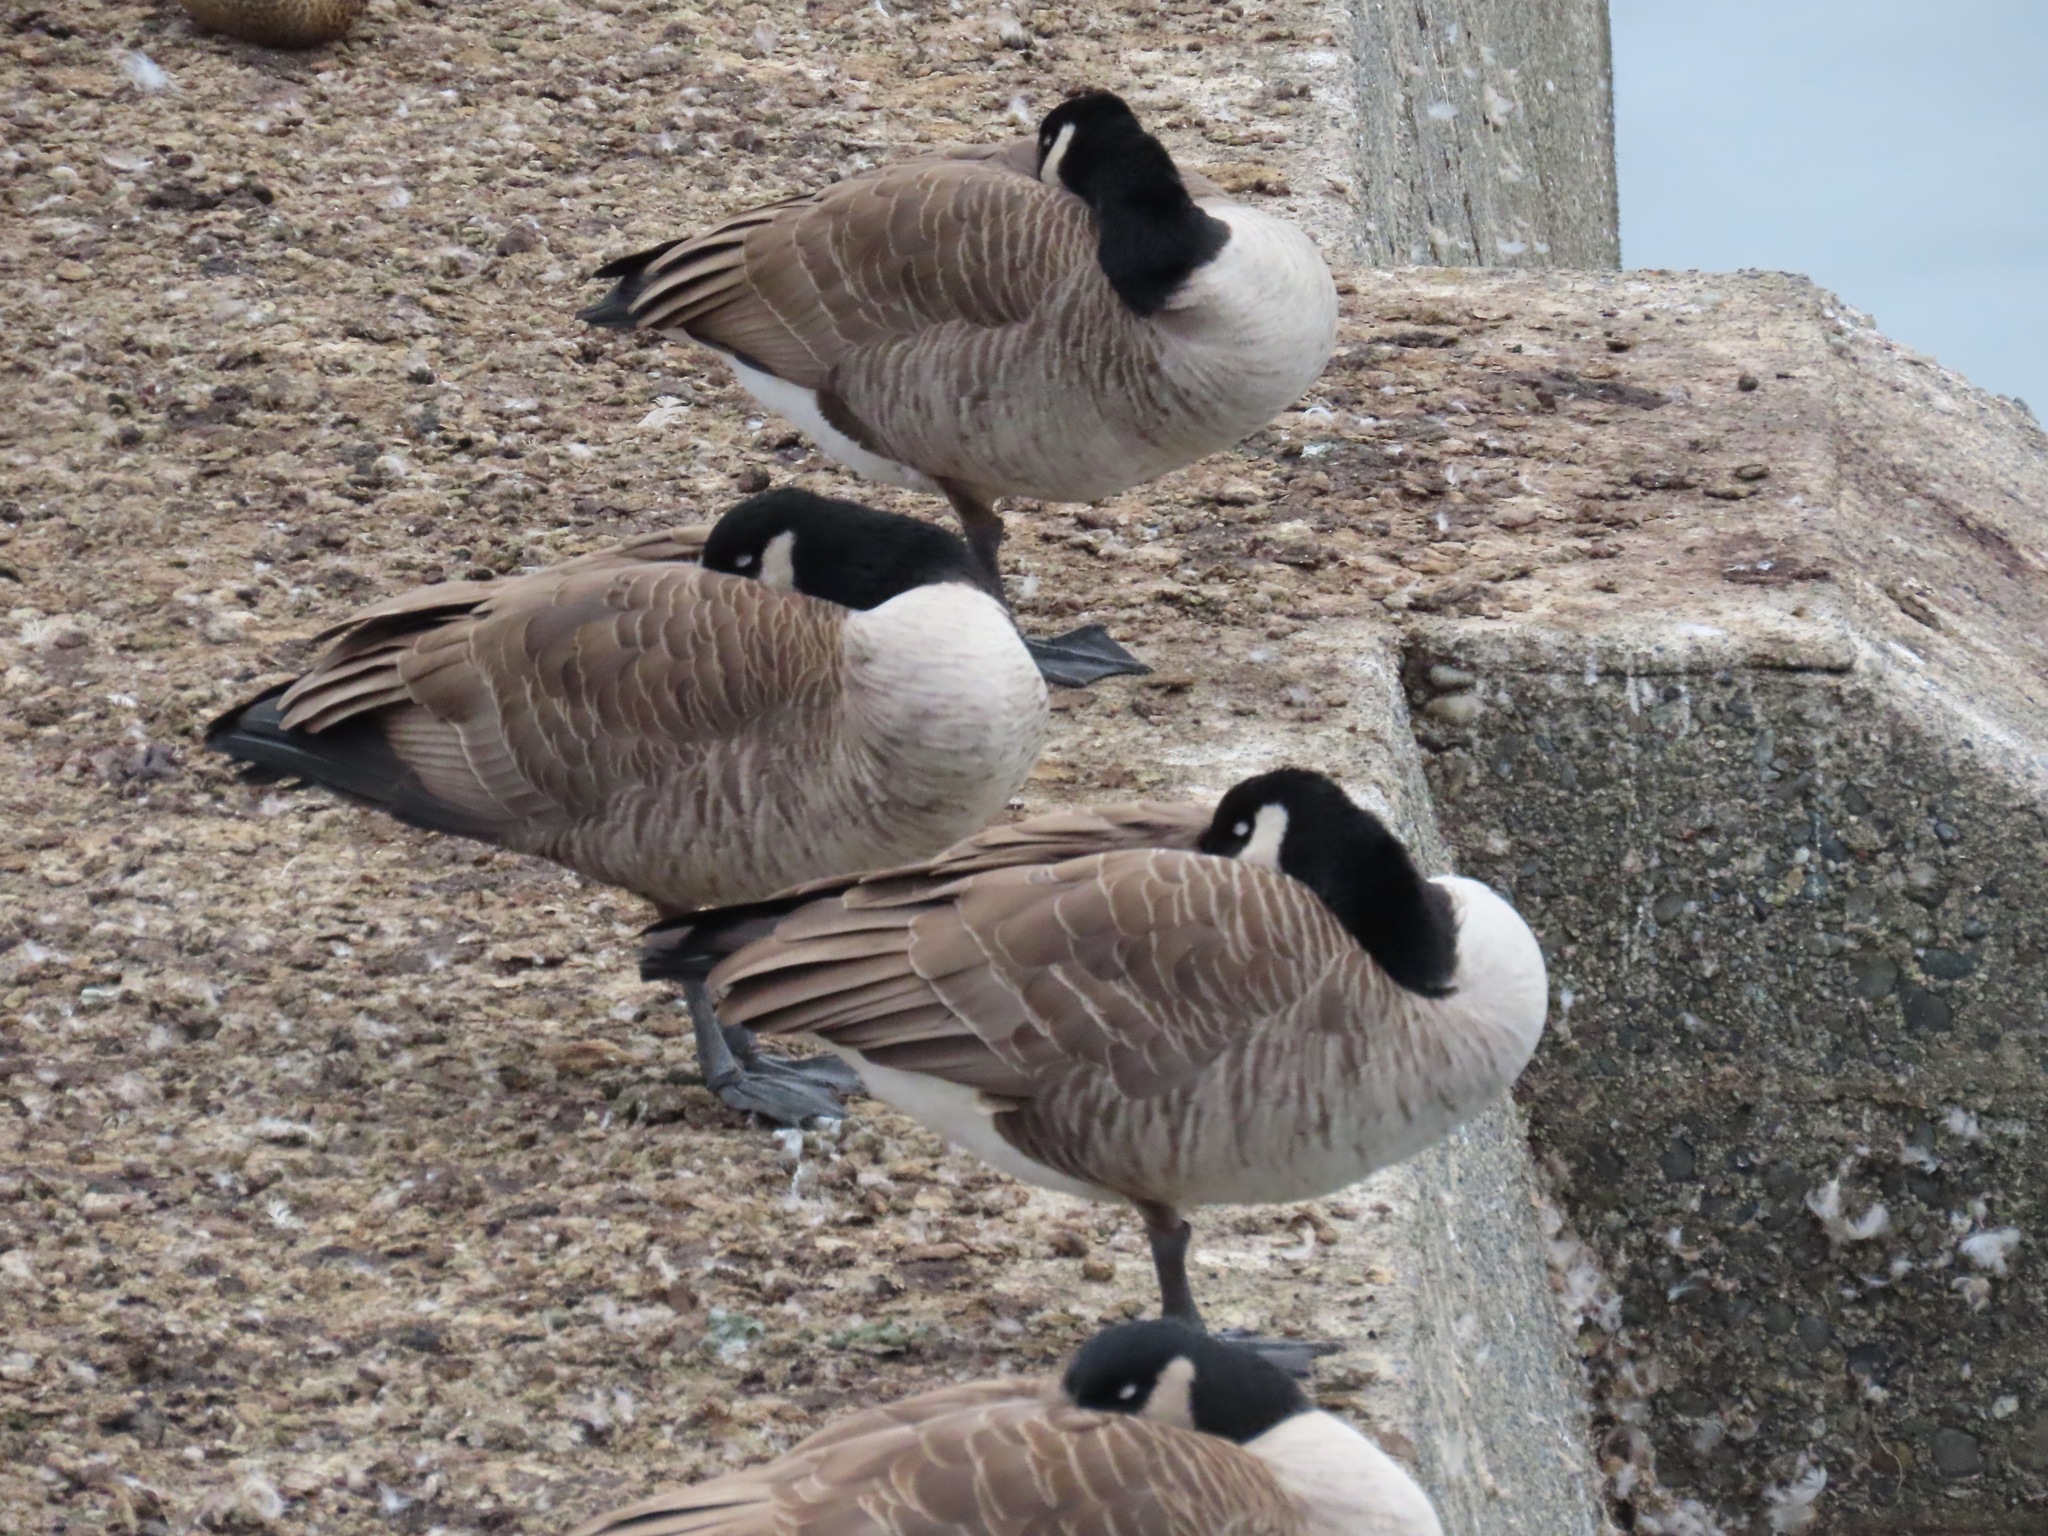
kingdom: Animalia
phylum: Chordata
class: Aves
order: Anseriformes
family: Anatidae
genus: Branta
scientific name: Branta canadensis
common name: Canada goose
